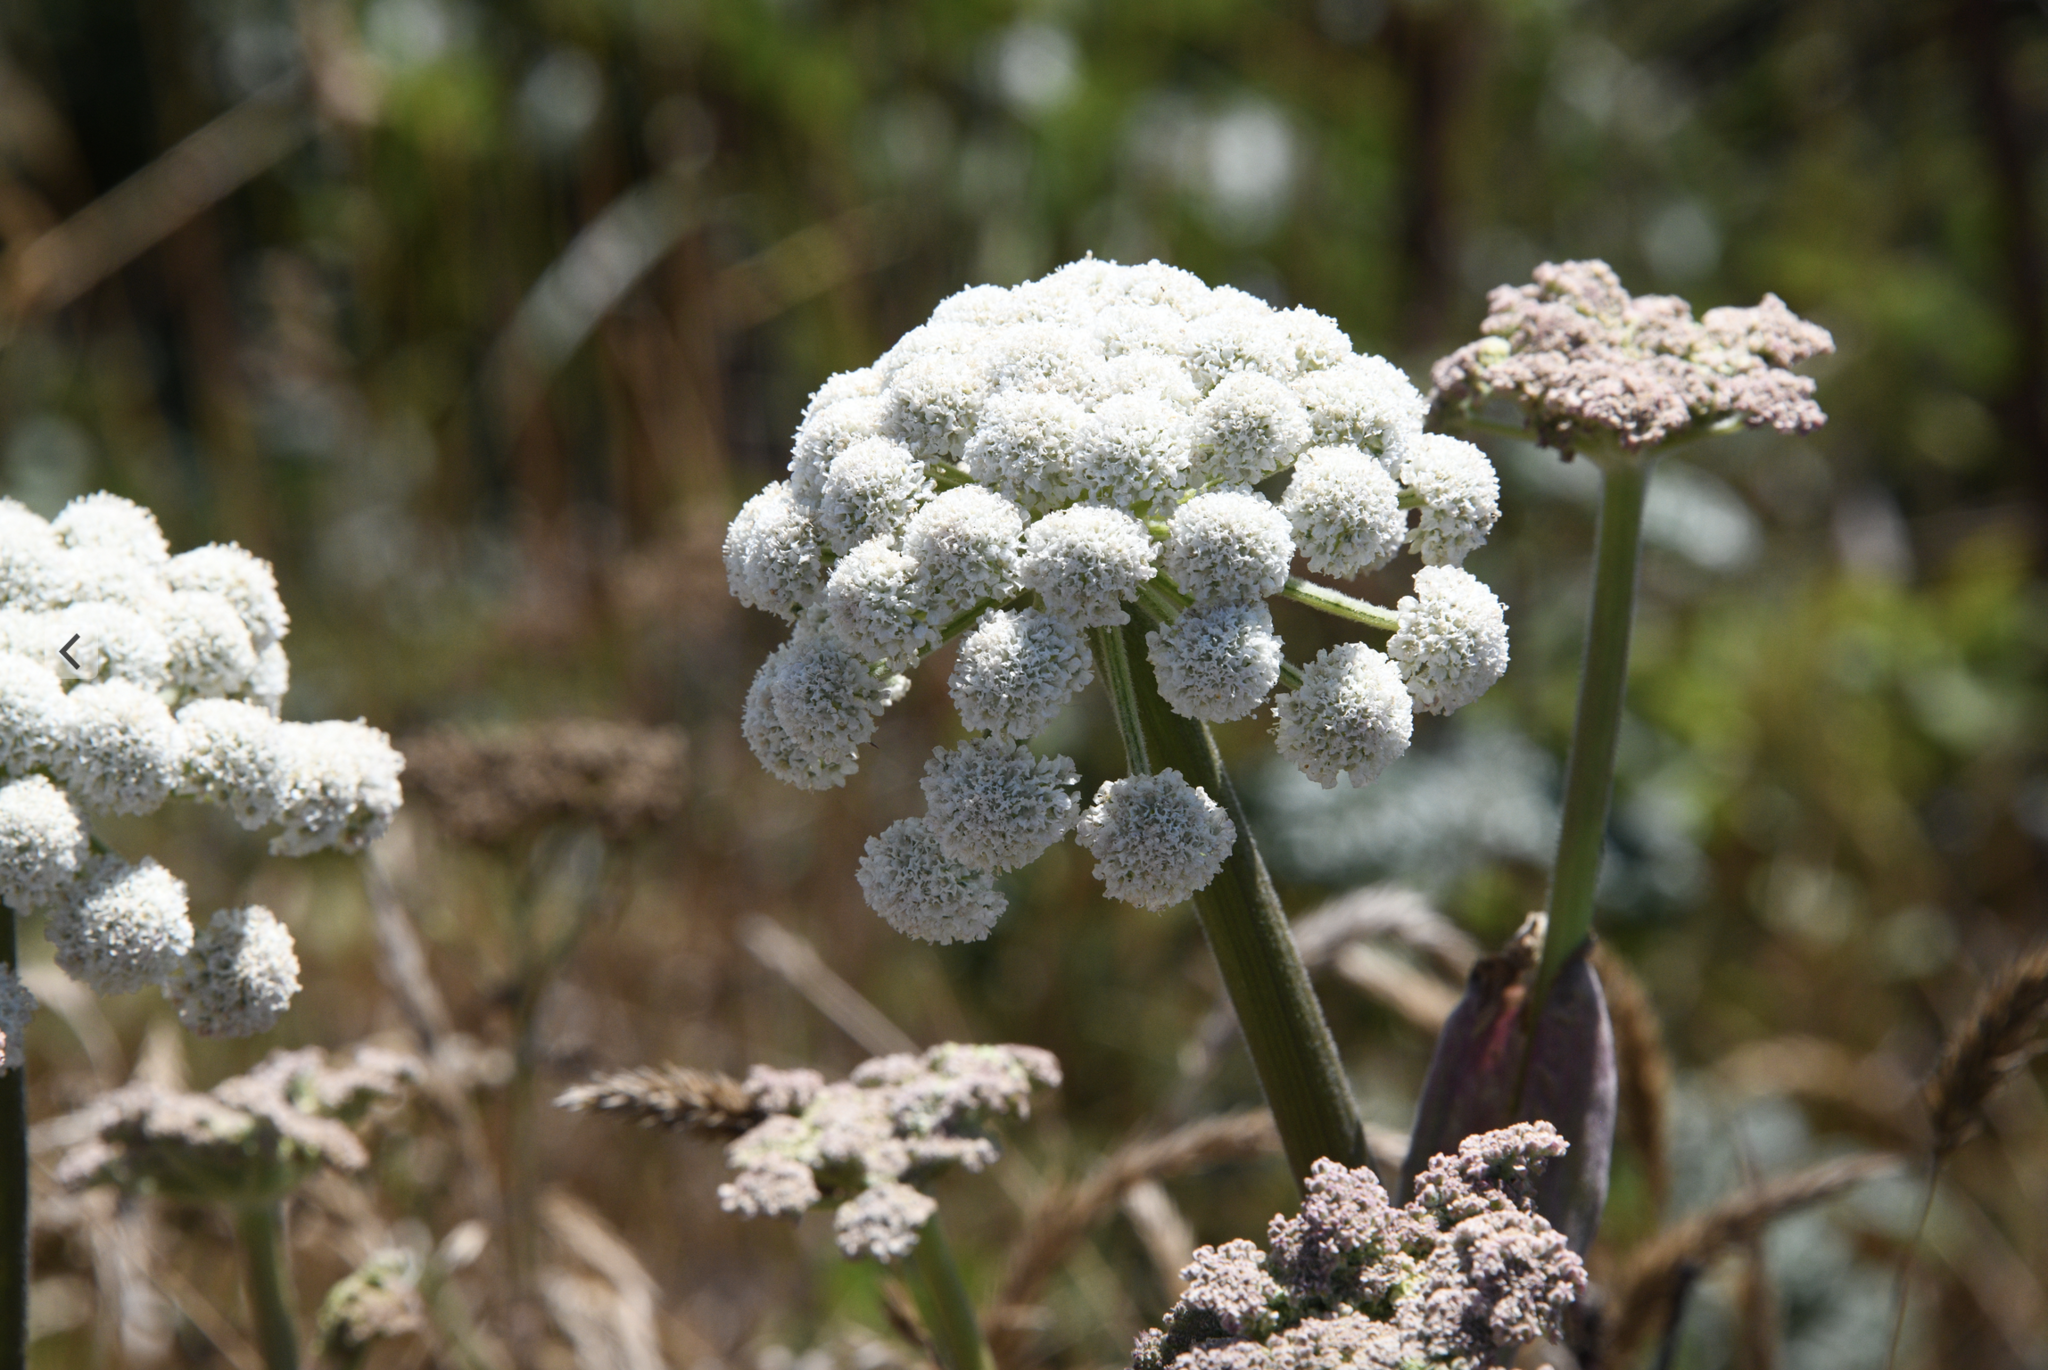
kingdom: Plantae
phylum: Tracheophyta
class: Magnoliopsida
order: Apiales
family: Apiaceae
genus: Angelica
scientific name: Angelica hendersonii
